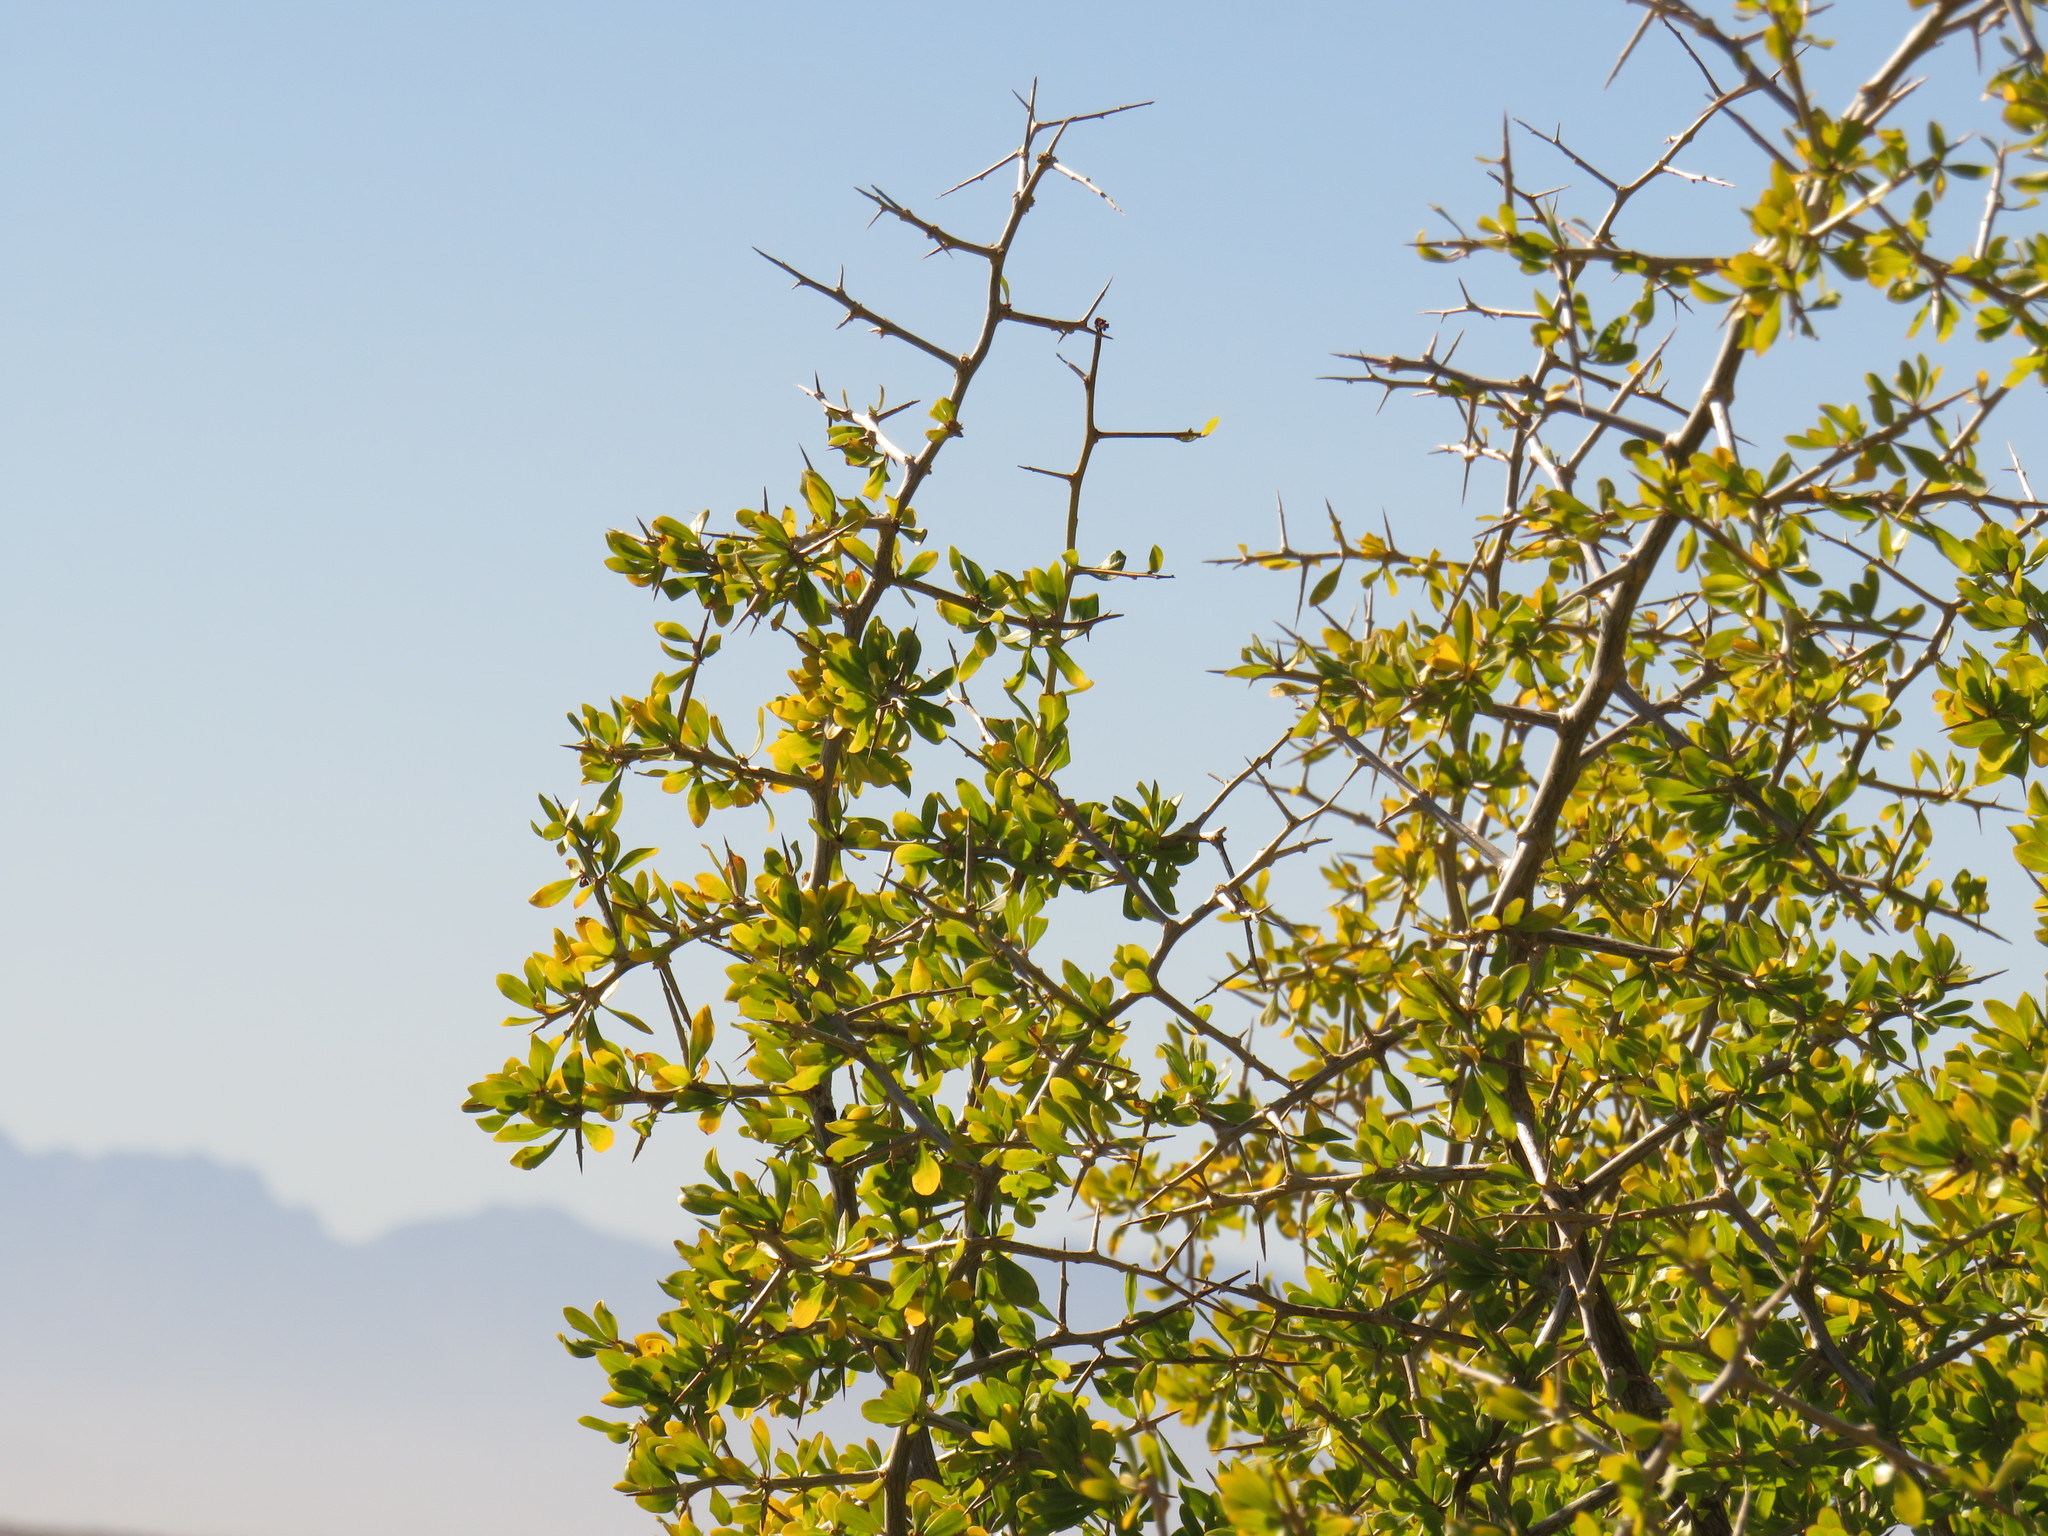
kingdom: Plantae
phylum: Tracheophyta
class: Magnoliopsida
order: Solanales
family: Solanaceae
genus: Lycium
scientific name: Lycium ferocissimum
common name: African boxthorn
